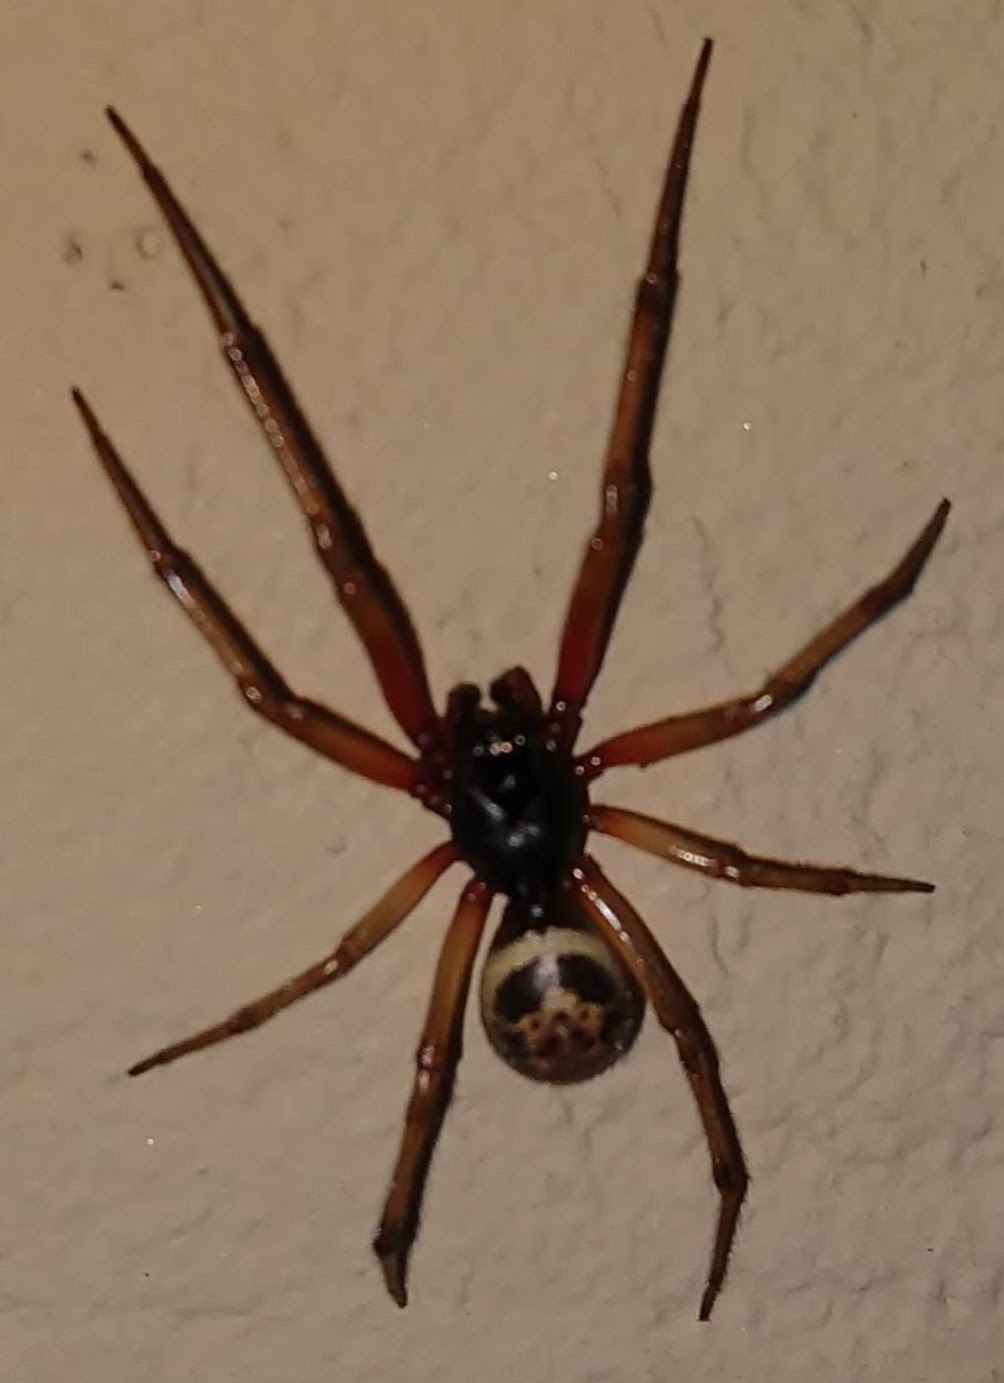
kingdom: Animalia
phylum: Arthropoda
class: Arachnida
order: Araneae
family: Theridiidae
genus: Steatoda
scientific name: Steatoda nobilis
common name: Cobweb weaver
